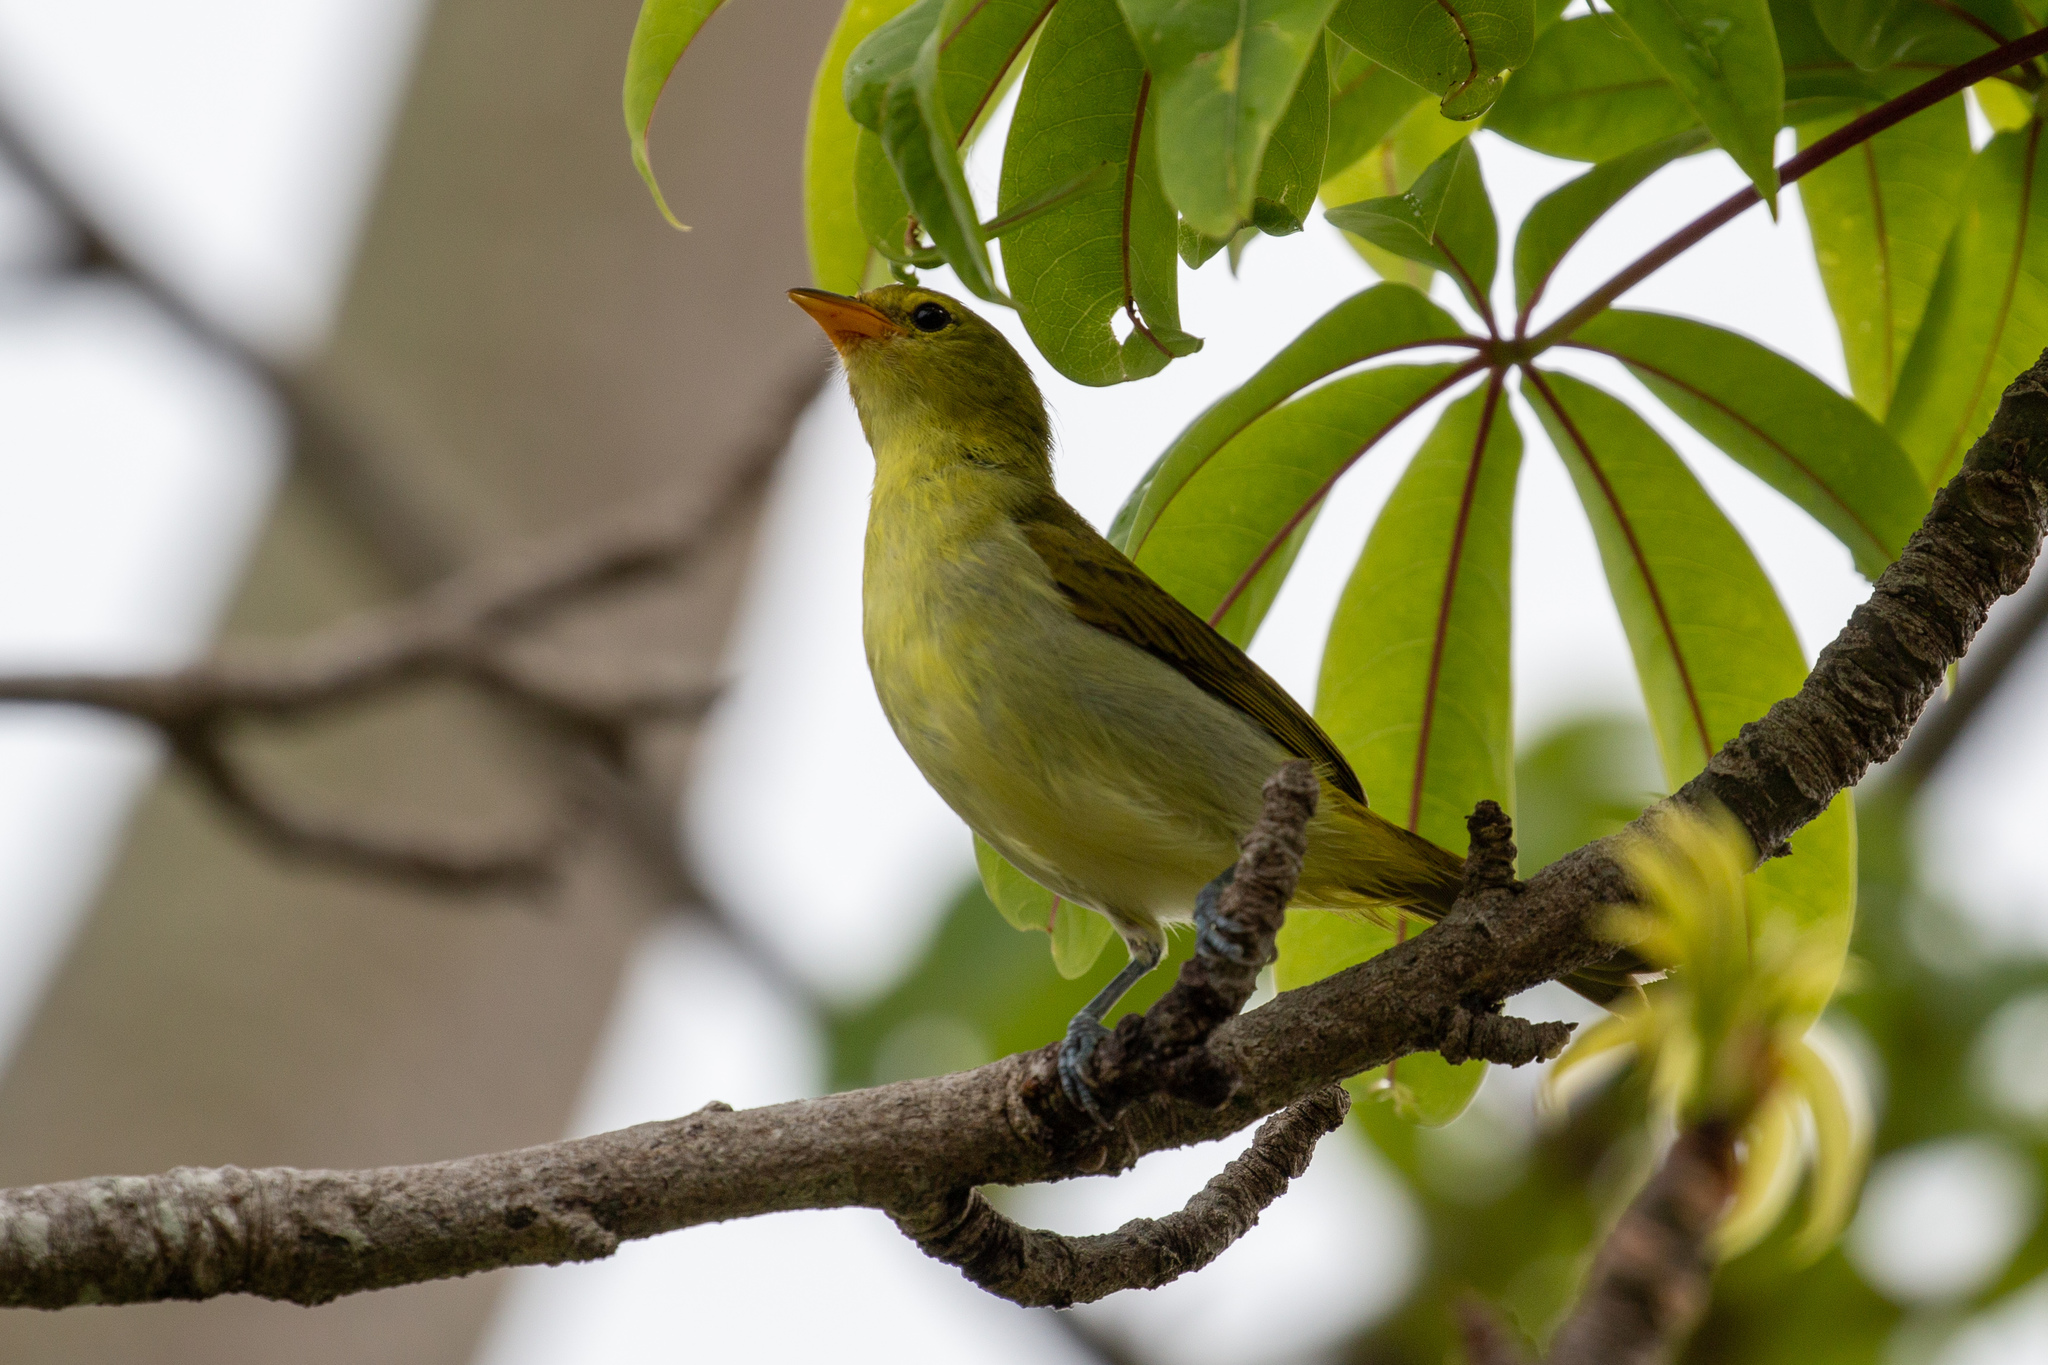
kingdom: Animalia
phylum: Chordata
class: Aves
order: Passeriformes
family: Thraupidae
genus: Hemithraupis
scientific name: Hemithraupis guira
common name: Guira tanager
